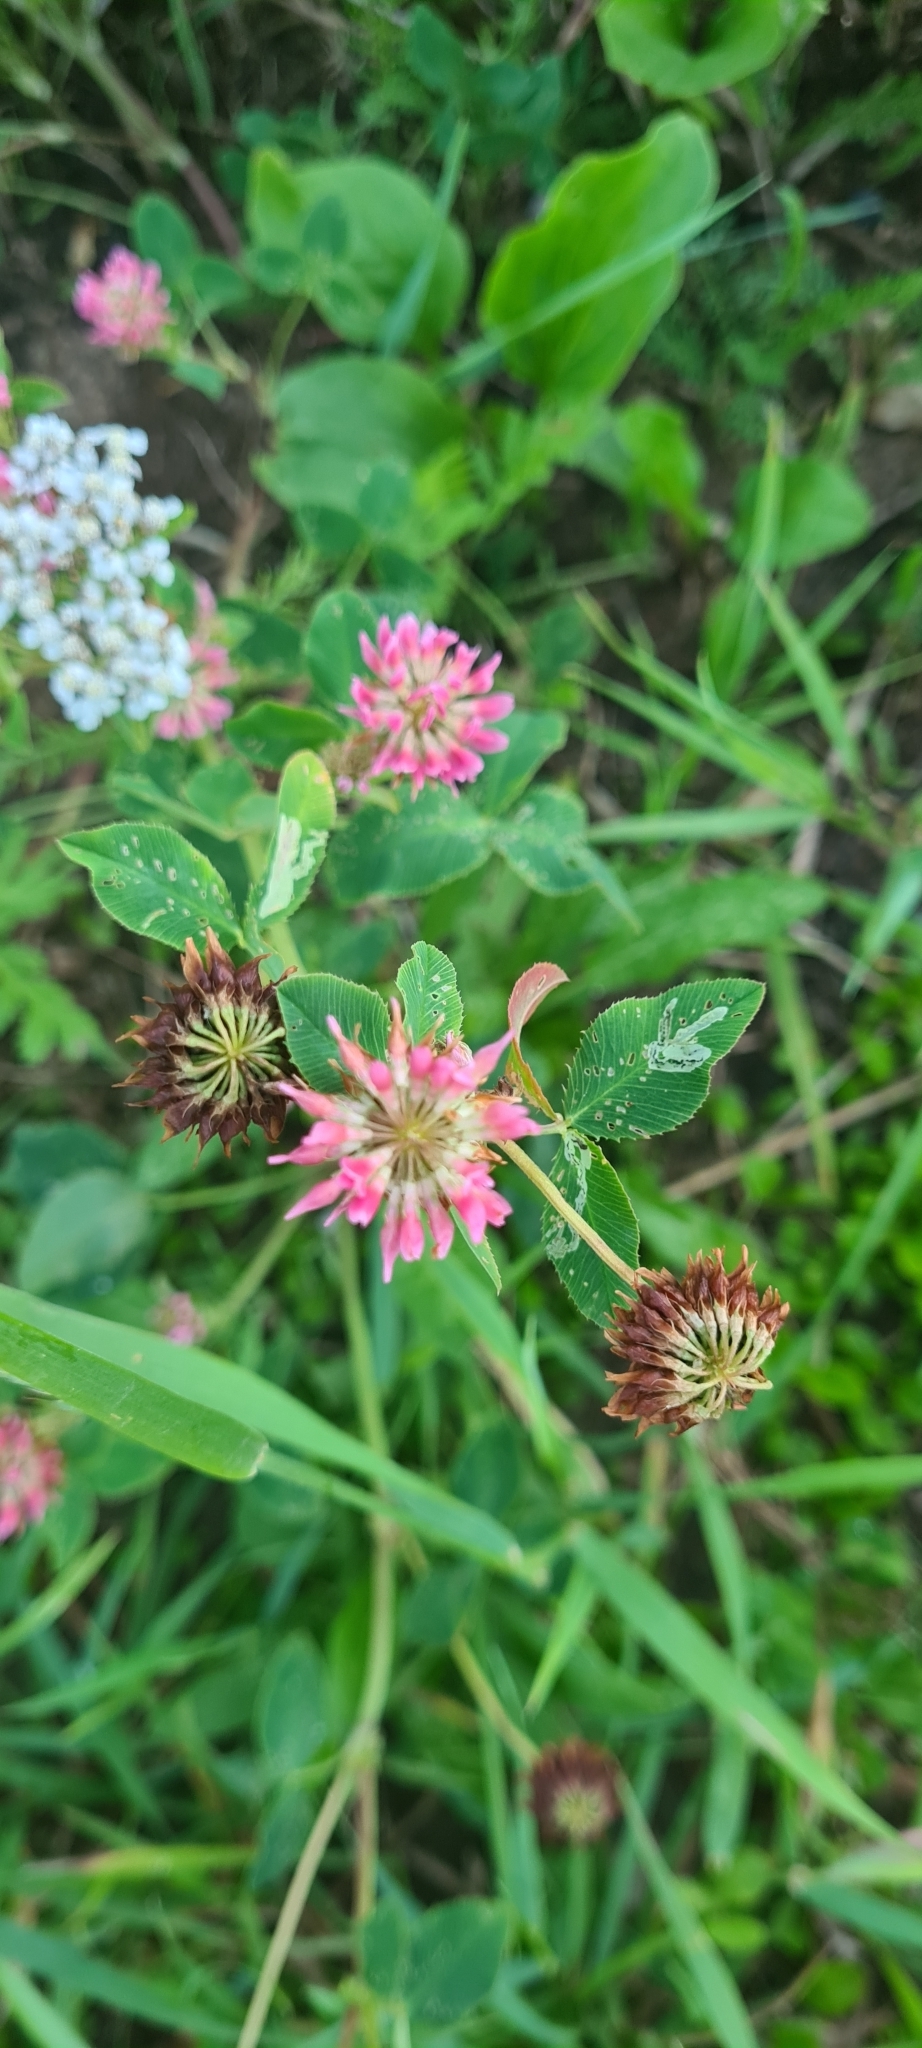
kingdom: Plantae
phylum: Tracheophyta
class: Magnoliopsida
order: Fabales
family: Fabaceae
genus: Trifolium
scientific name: Trifolium hybridum
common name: Alsike clover
